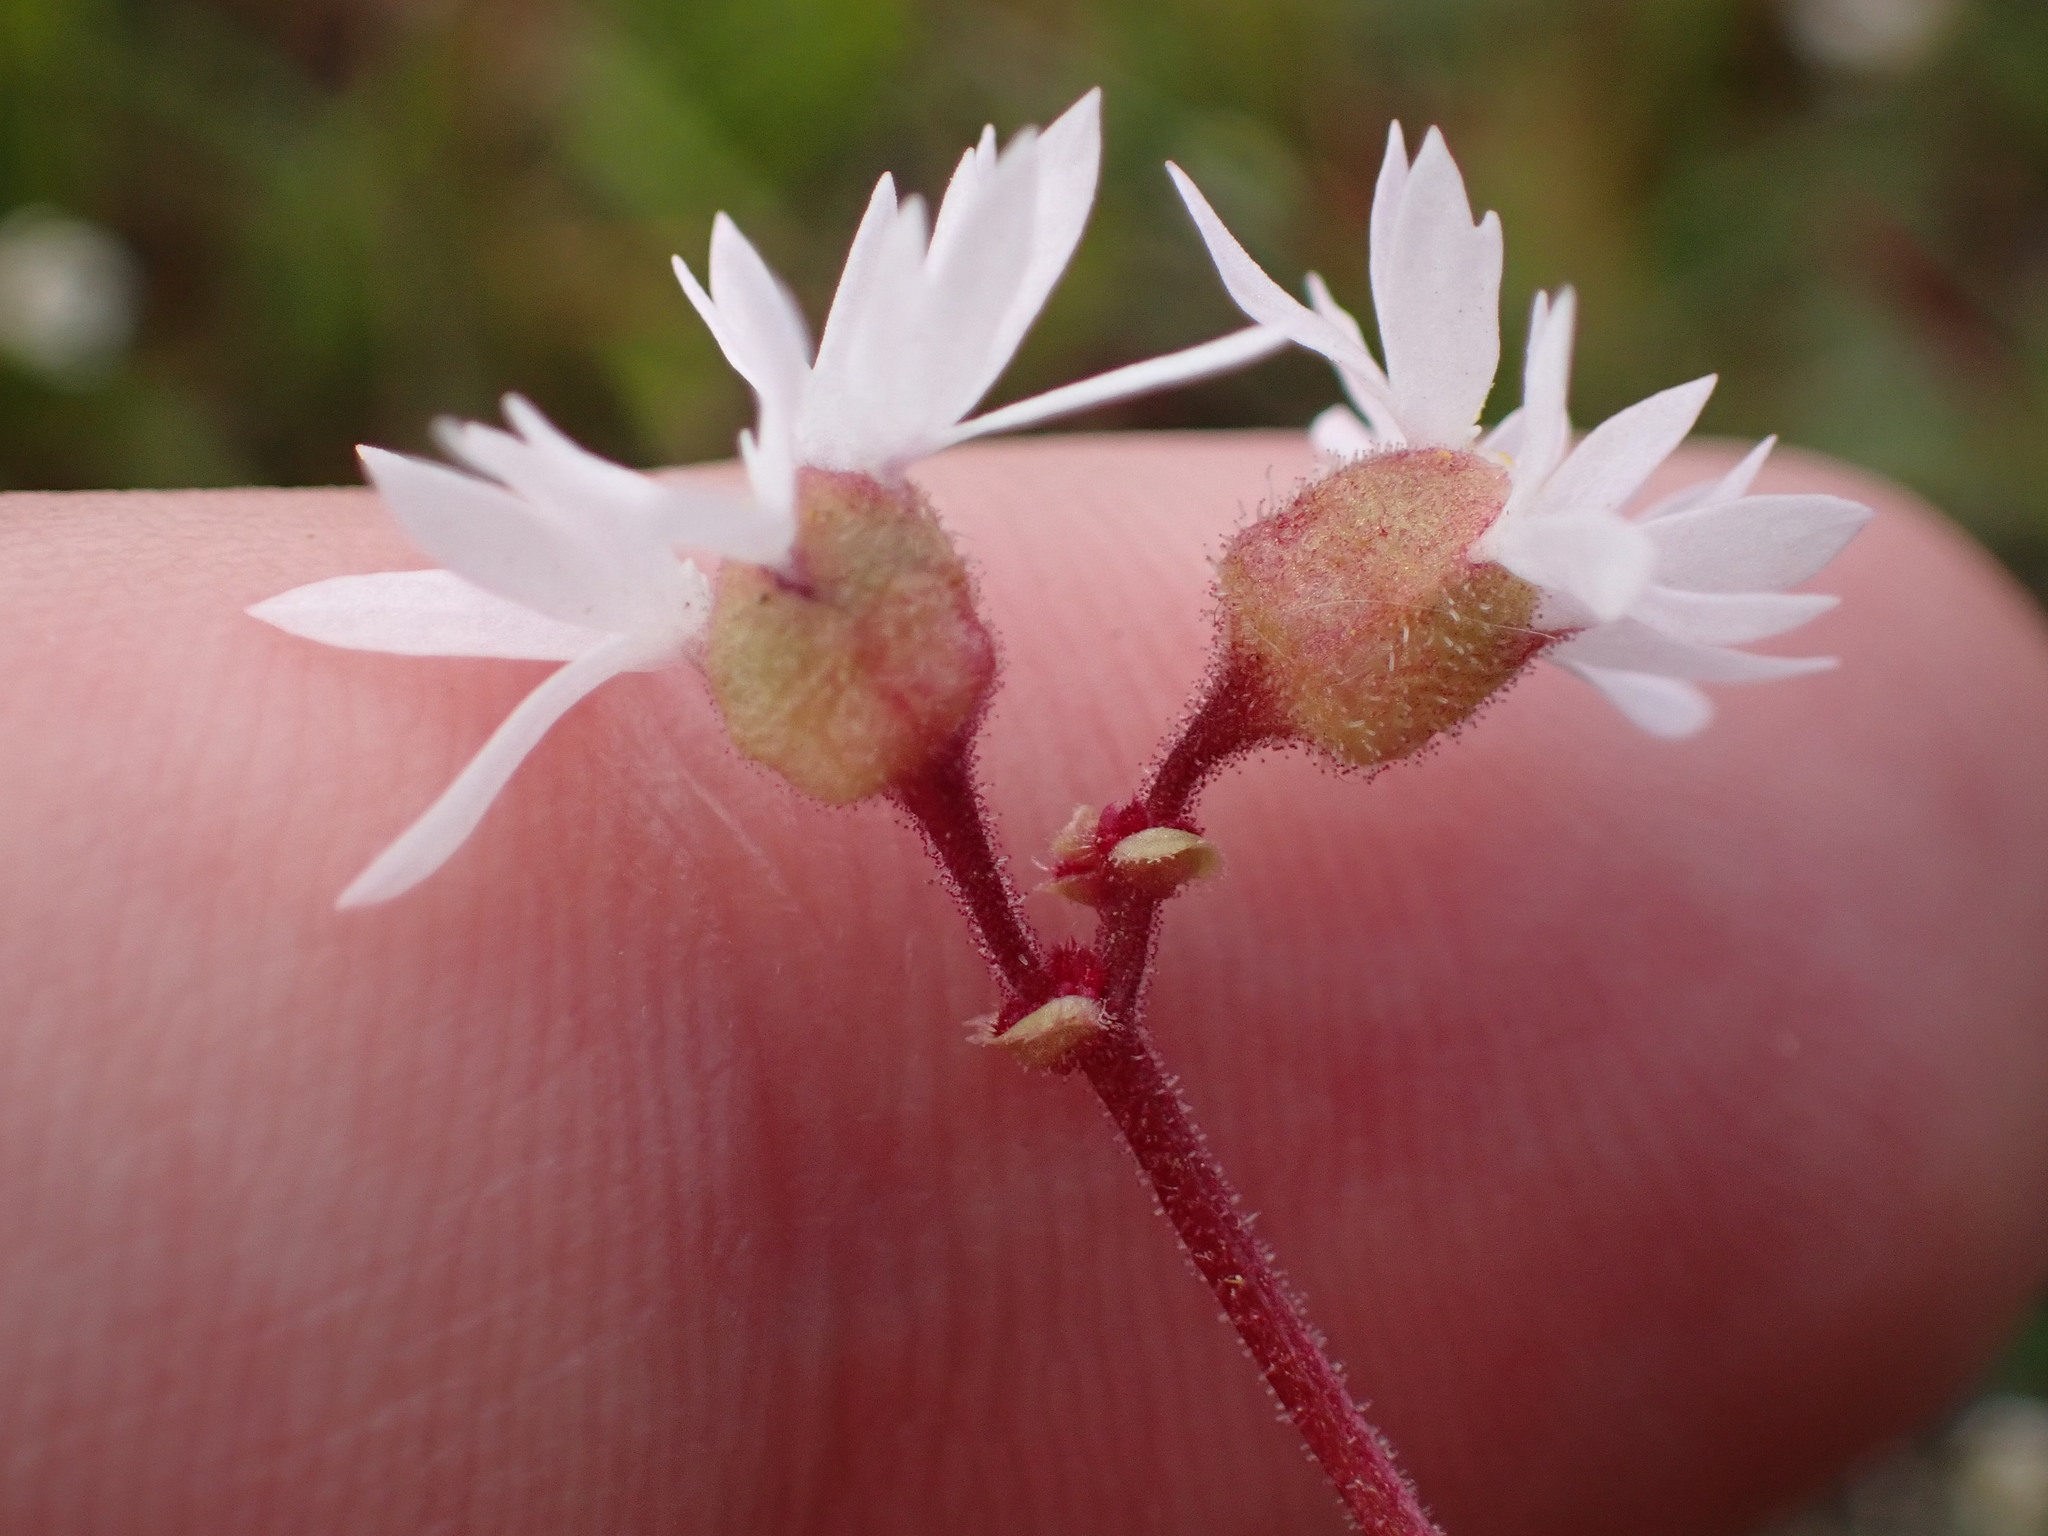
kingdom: Plantae
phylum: Tracheophyta
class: Magnoliopsida
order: Saxifragales
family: Saxifragaceae
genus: Lithophragma
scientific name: Lithophragma glabrum
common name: Bulbous prairie-star
